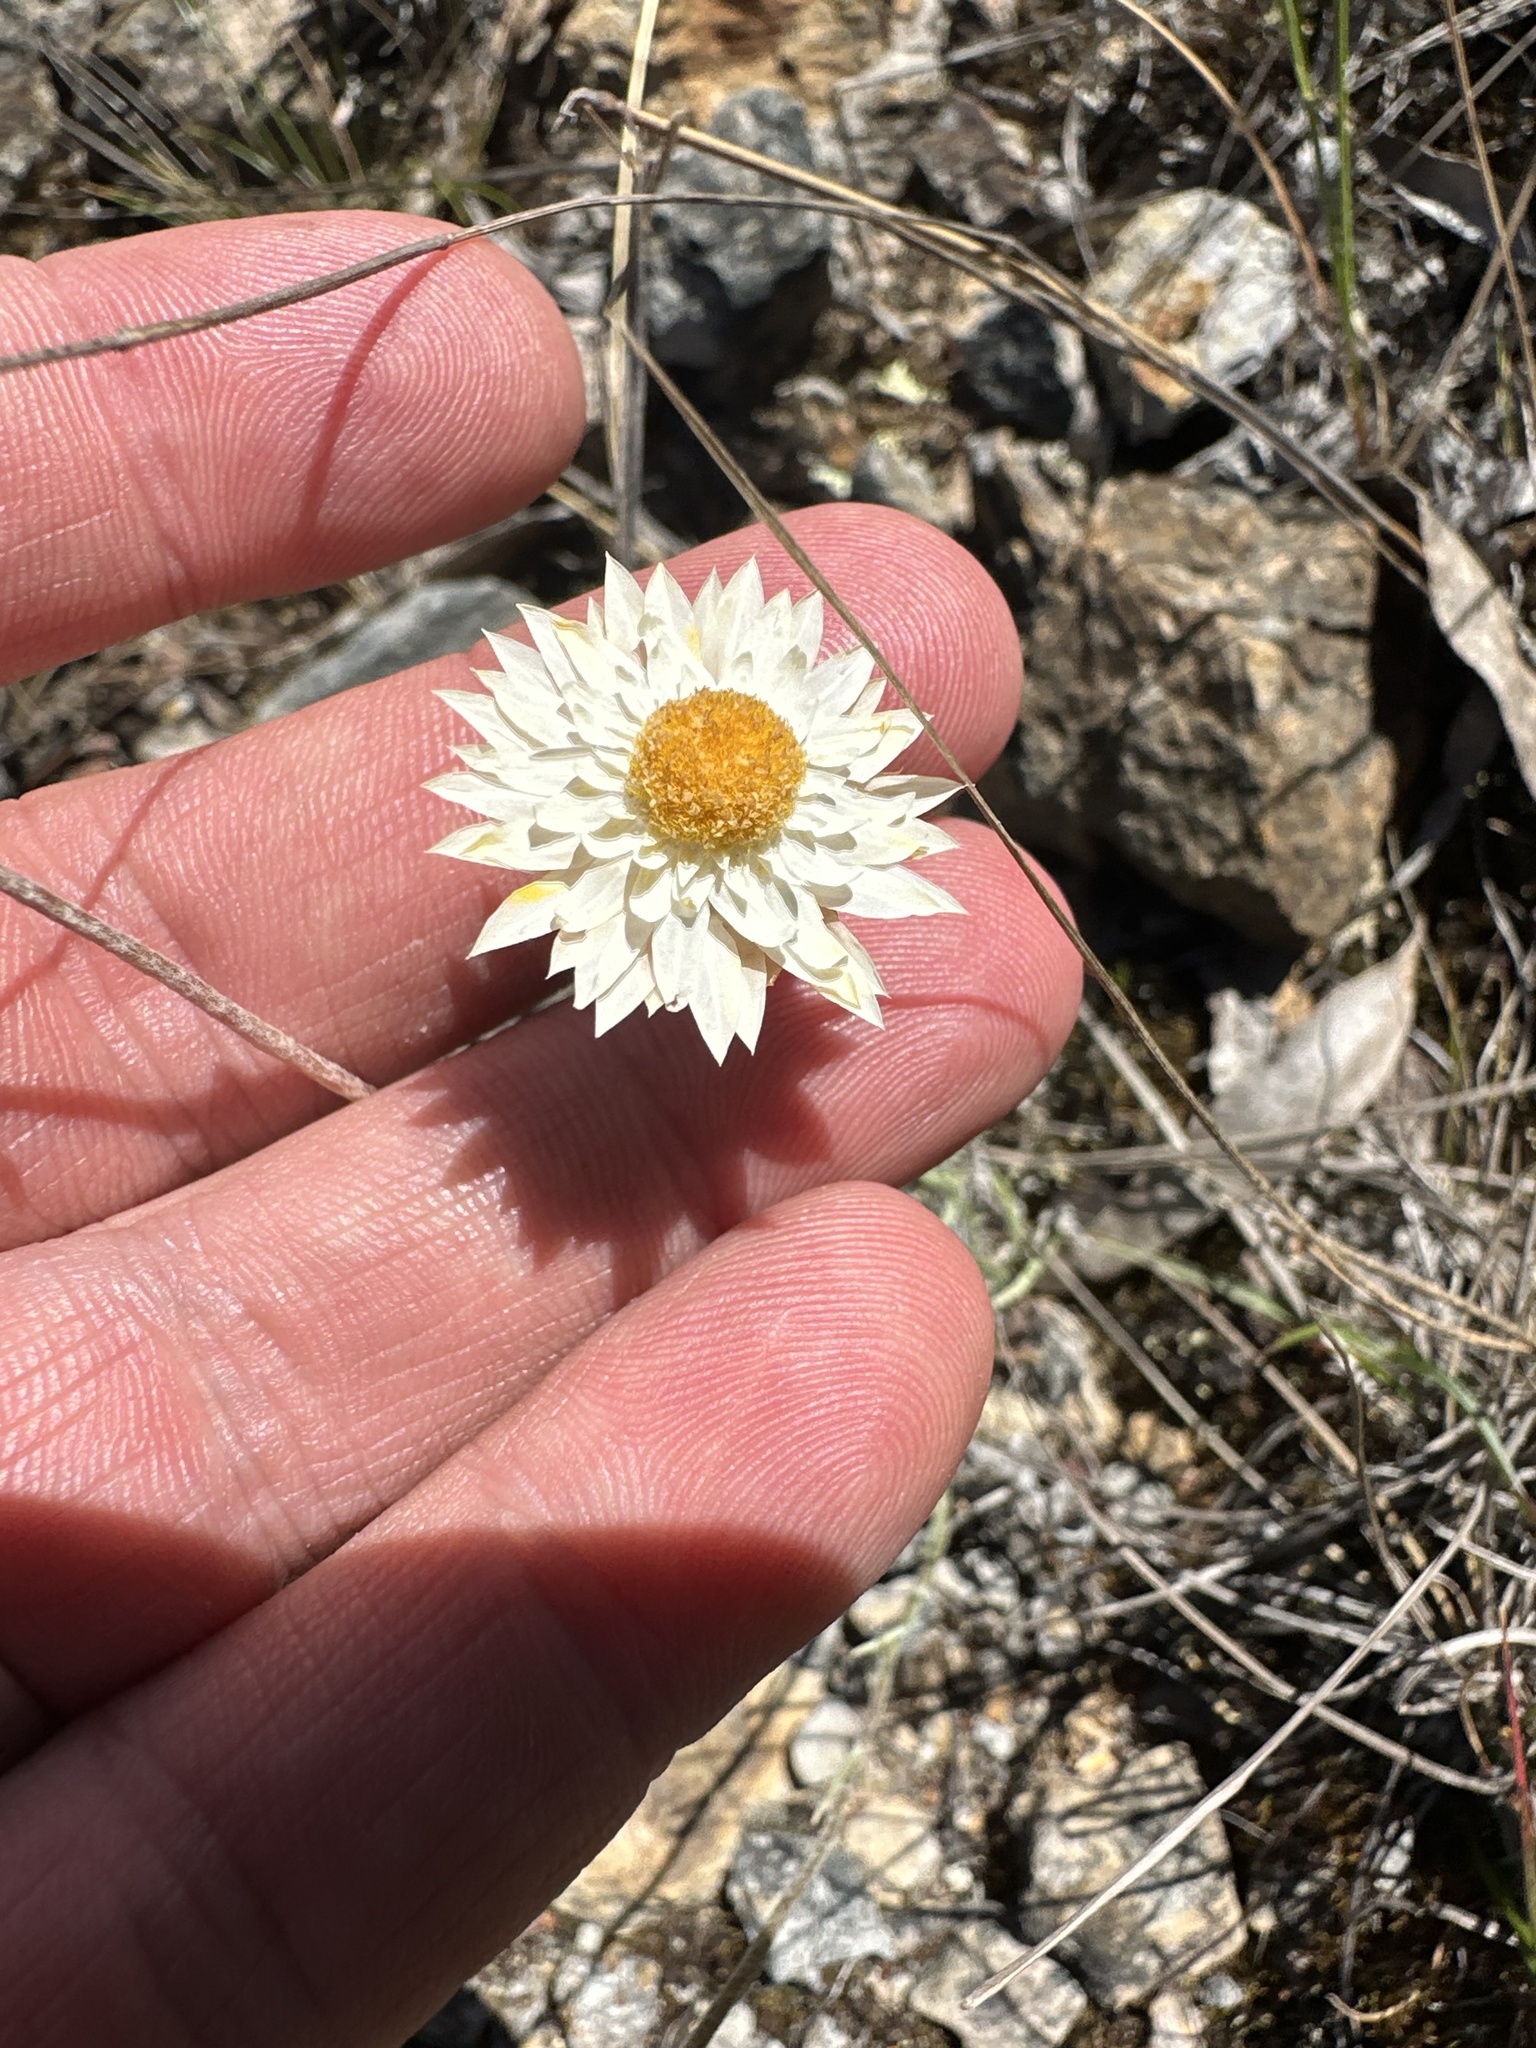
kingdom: Plantae
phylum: Tracheophyta
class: Magnoliopsida
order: Asterales
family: Asteraceae
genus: Leucochrysum
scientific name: Leucochrysum albicans
